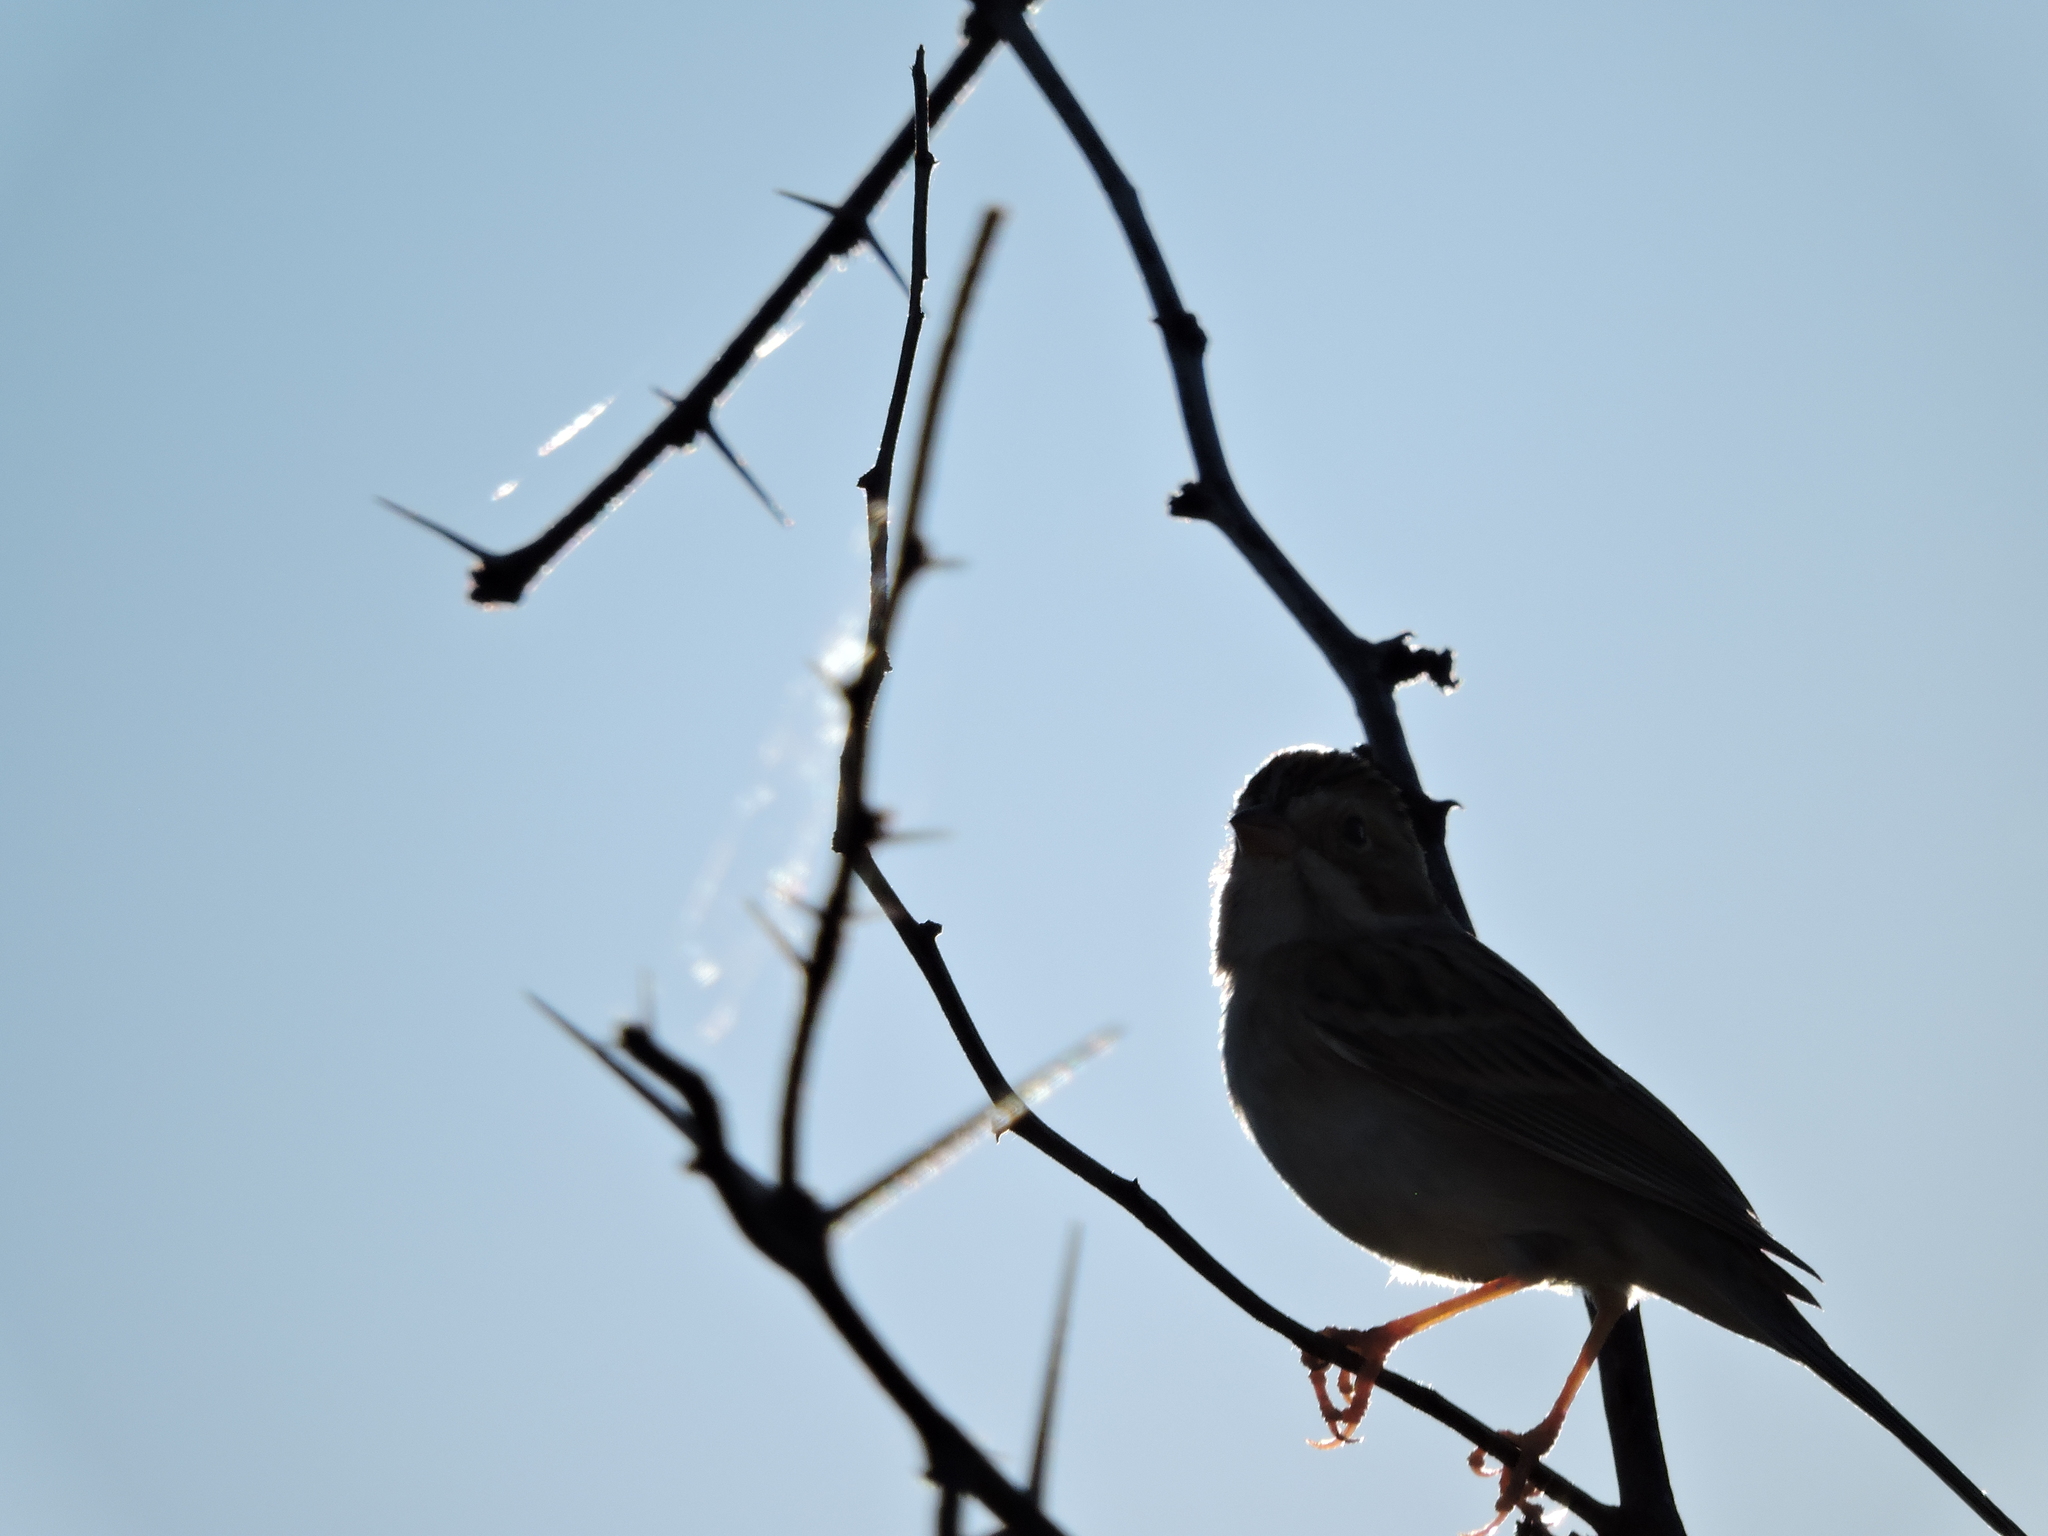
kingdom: Animalia
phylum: Chordata
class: Aves
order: Passeriformes
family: Passerellidae
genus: Spizella
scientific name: Spizella pallida
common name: Clay-colored sparrow
